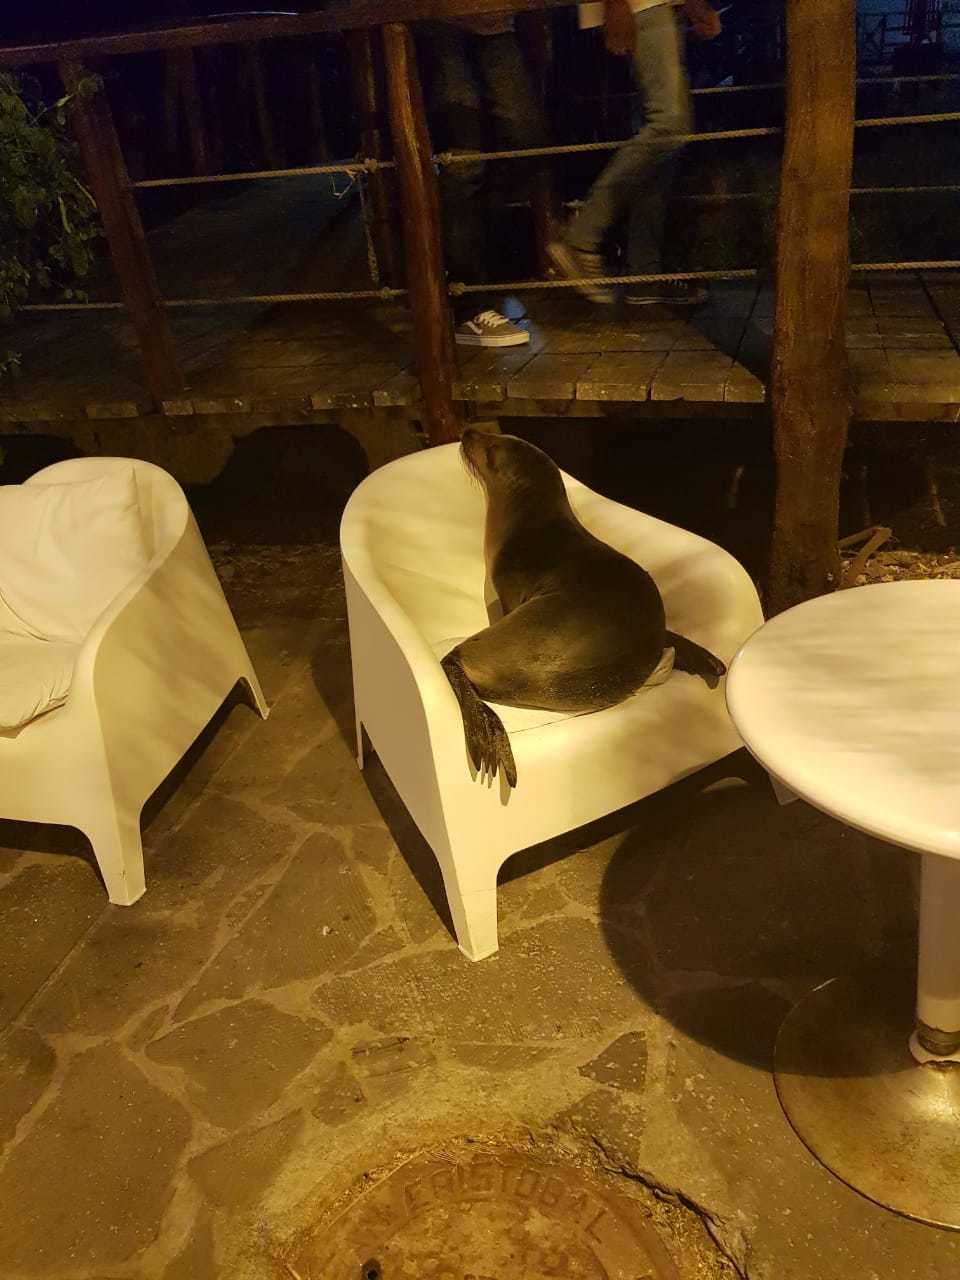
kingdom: Animalia
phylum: Chordata
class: Mammalia
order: Carnivora
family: Otariidae
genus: Zalophus
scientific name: Zalophus wollebaeki
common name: Galapagos sea lion
